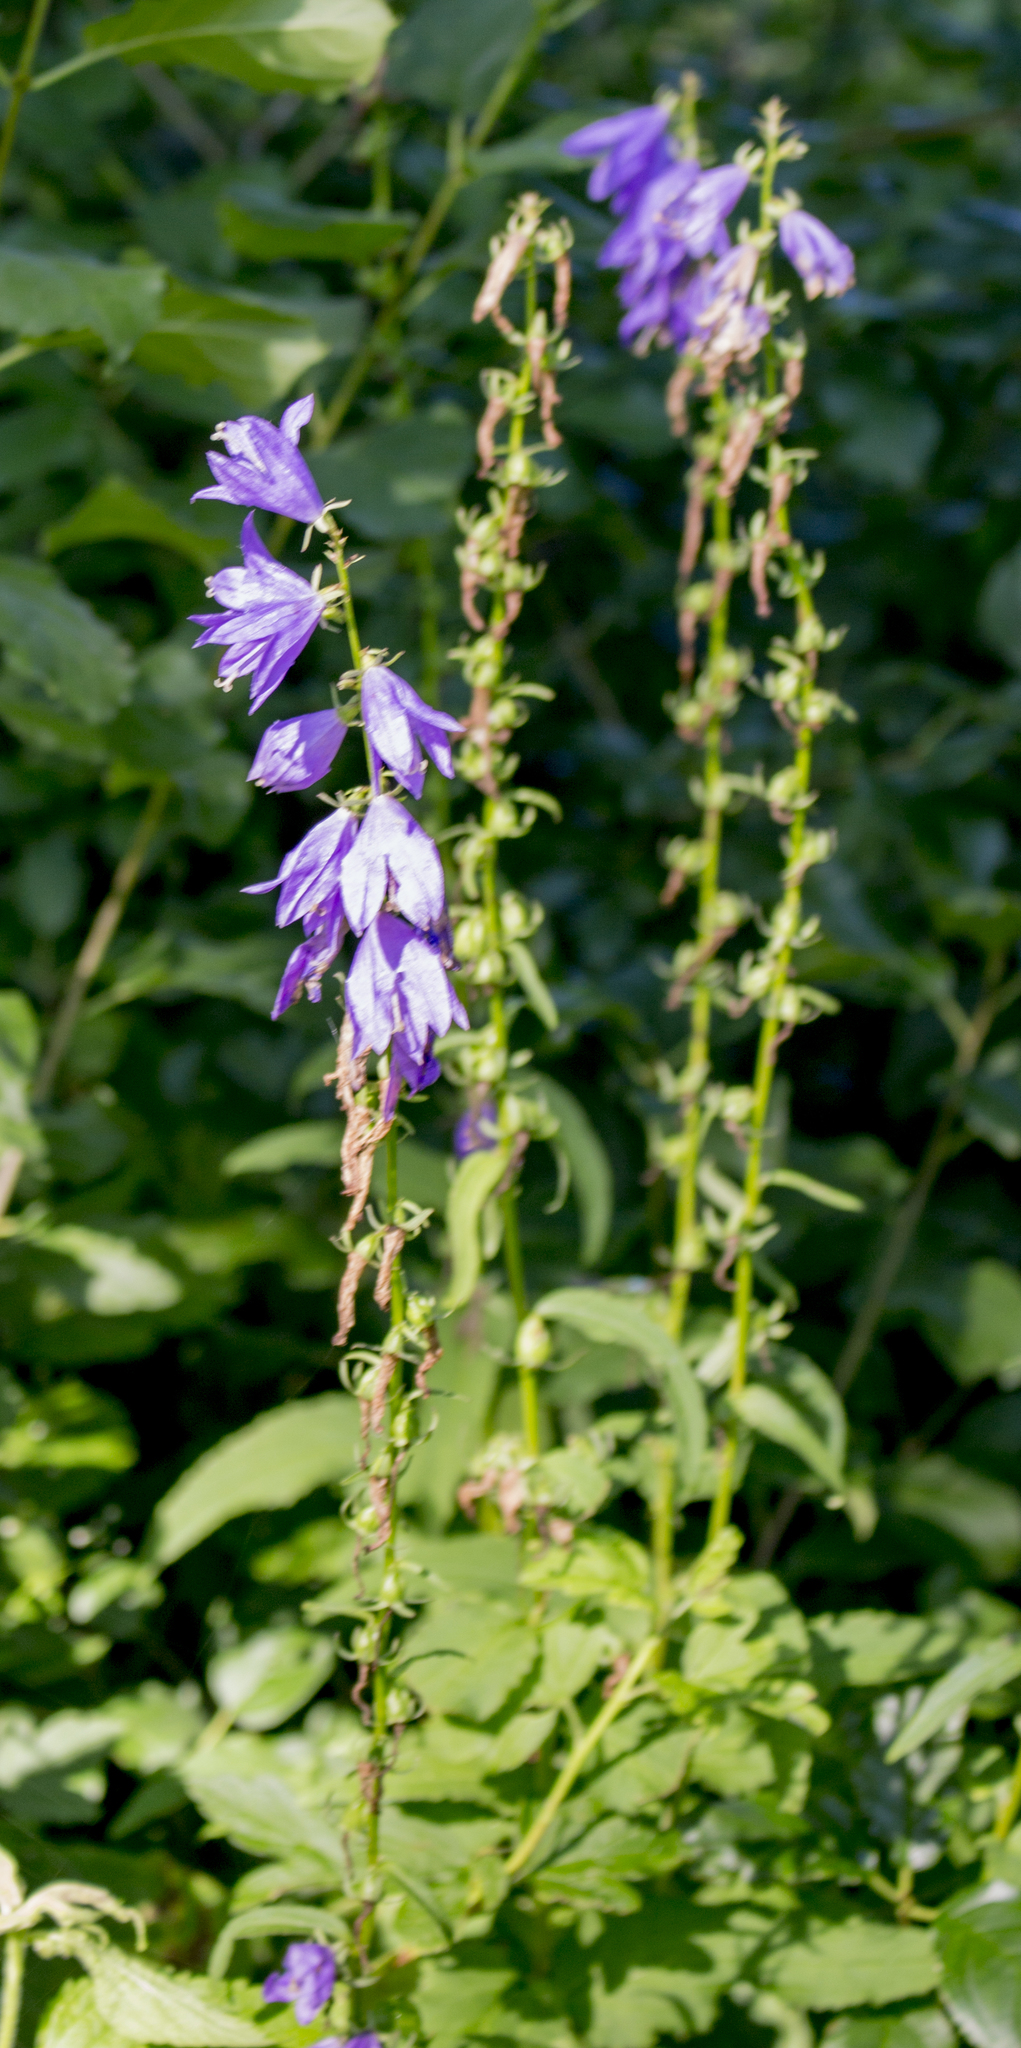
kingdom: Plantae
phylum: Tracheophyta
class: Magnoliopsida
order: Asterales
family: Campanulaceae
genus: Campanula
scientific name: Campanula rapunculoides
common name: Creeping bellflower
